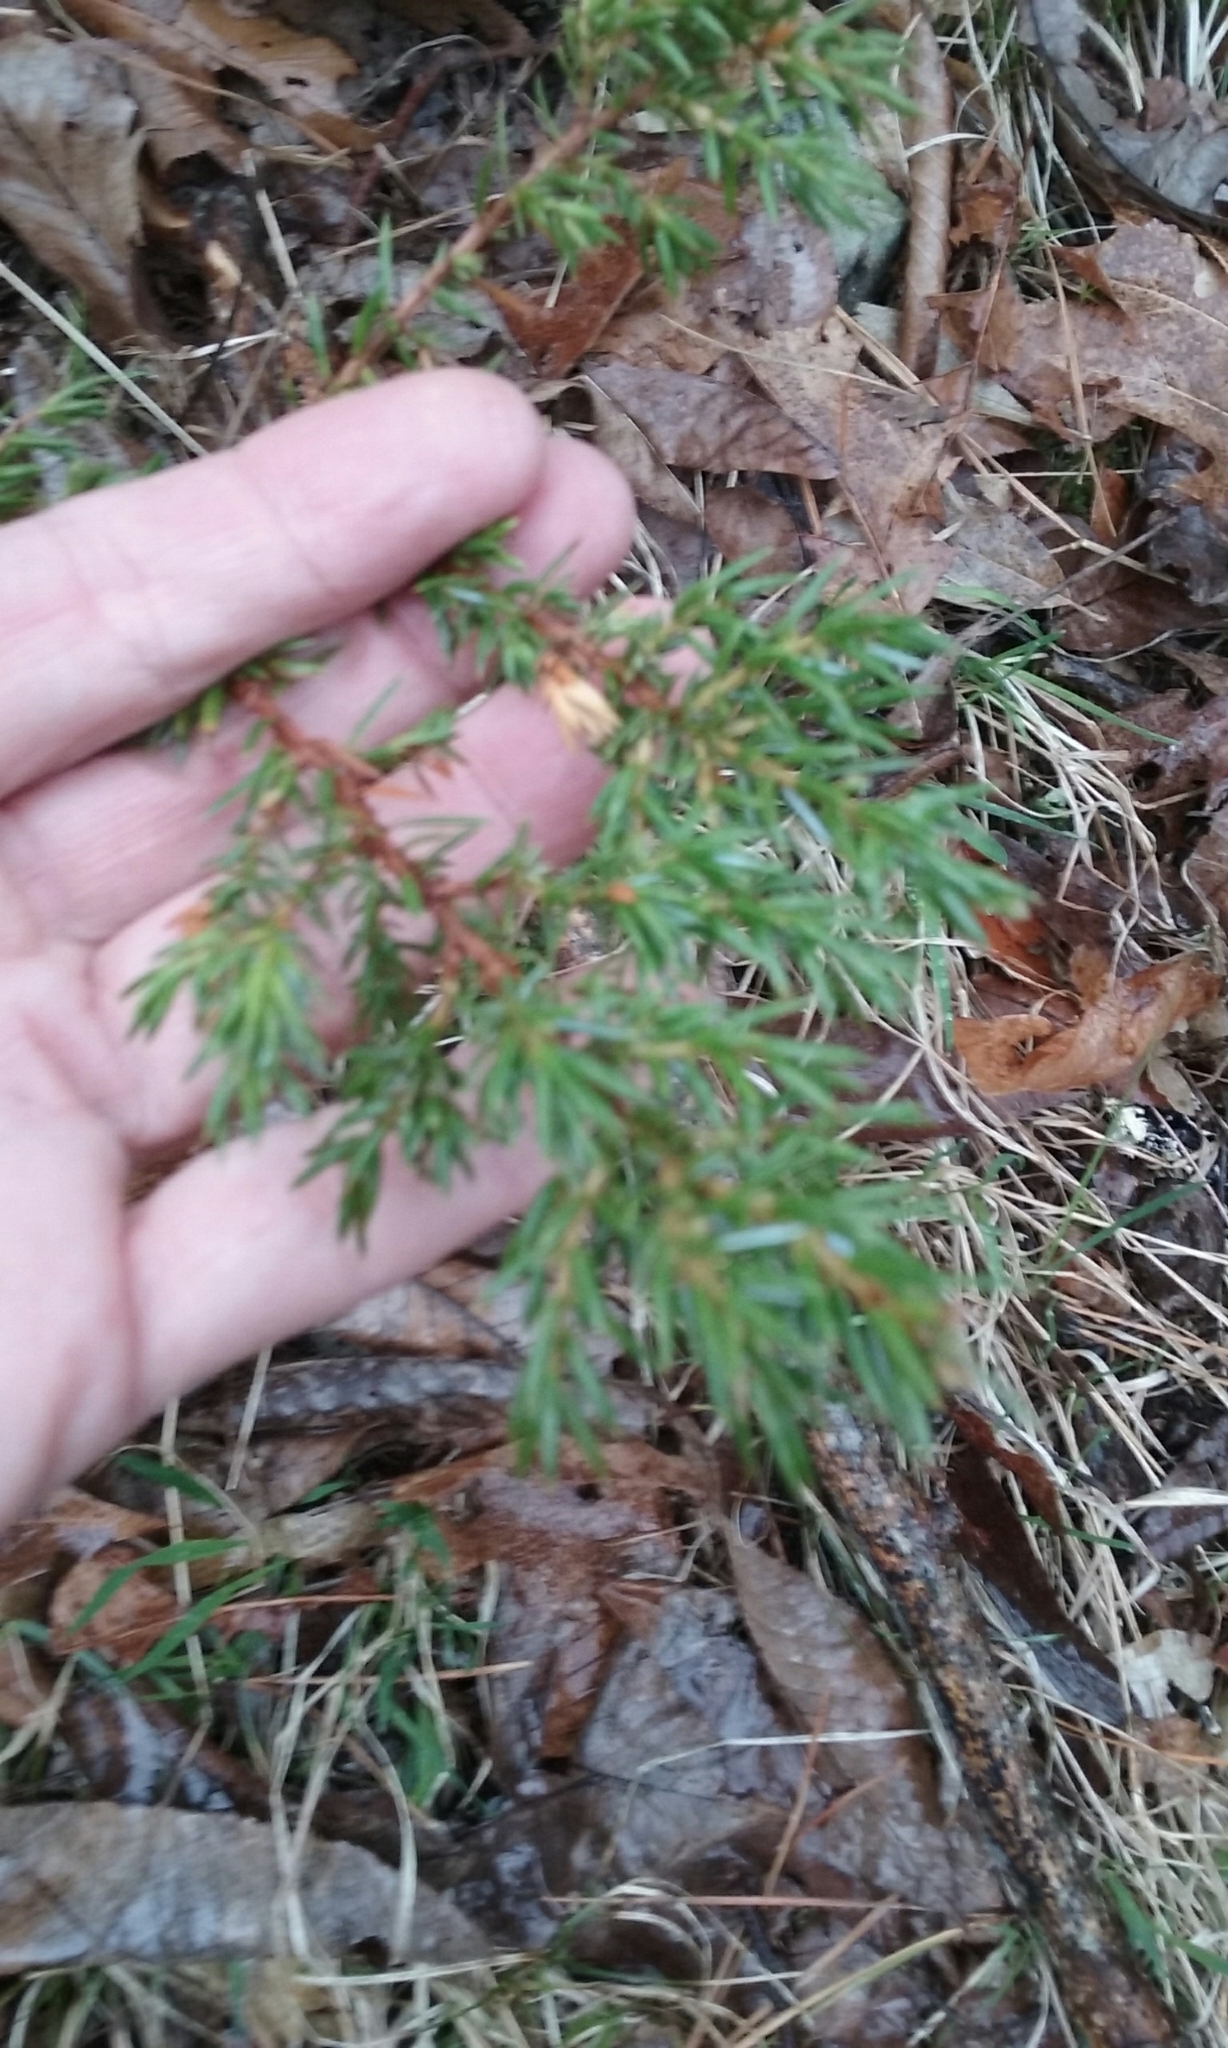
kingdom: Plantae
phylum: Tracheophyta
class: Pinopsida
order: Pinales
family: Cupressaceae
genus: Juniperus
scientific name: Juniperus communis
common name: Common juniper
